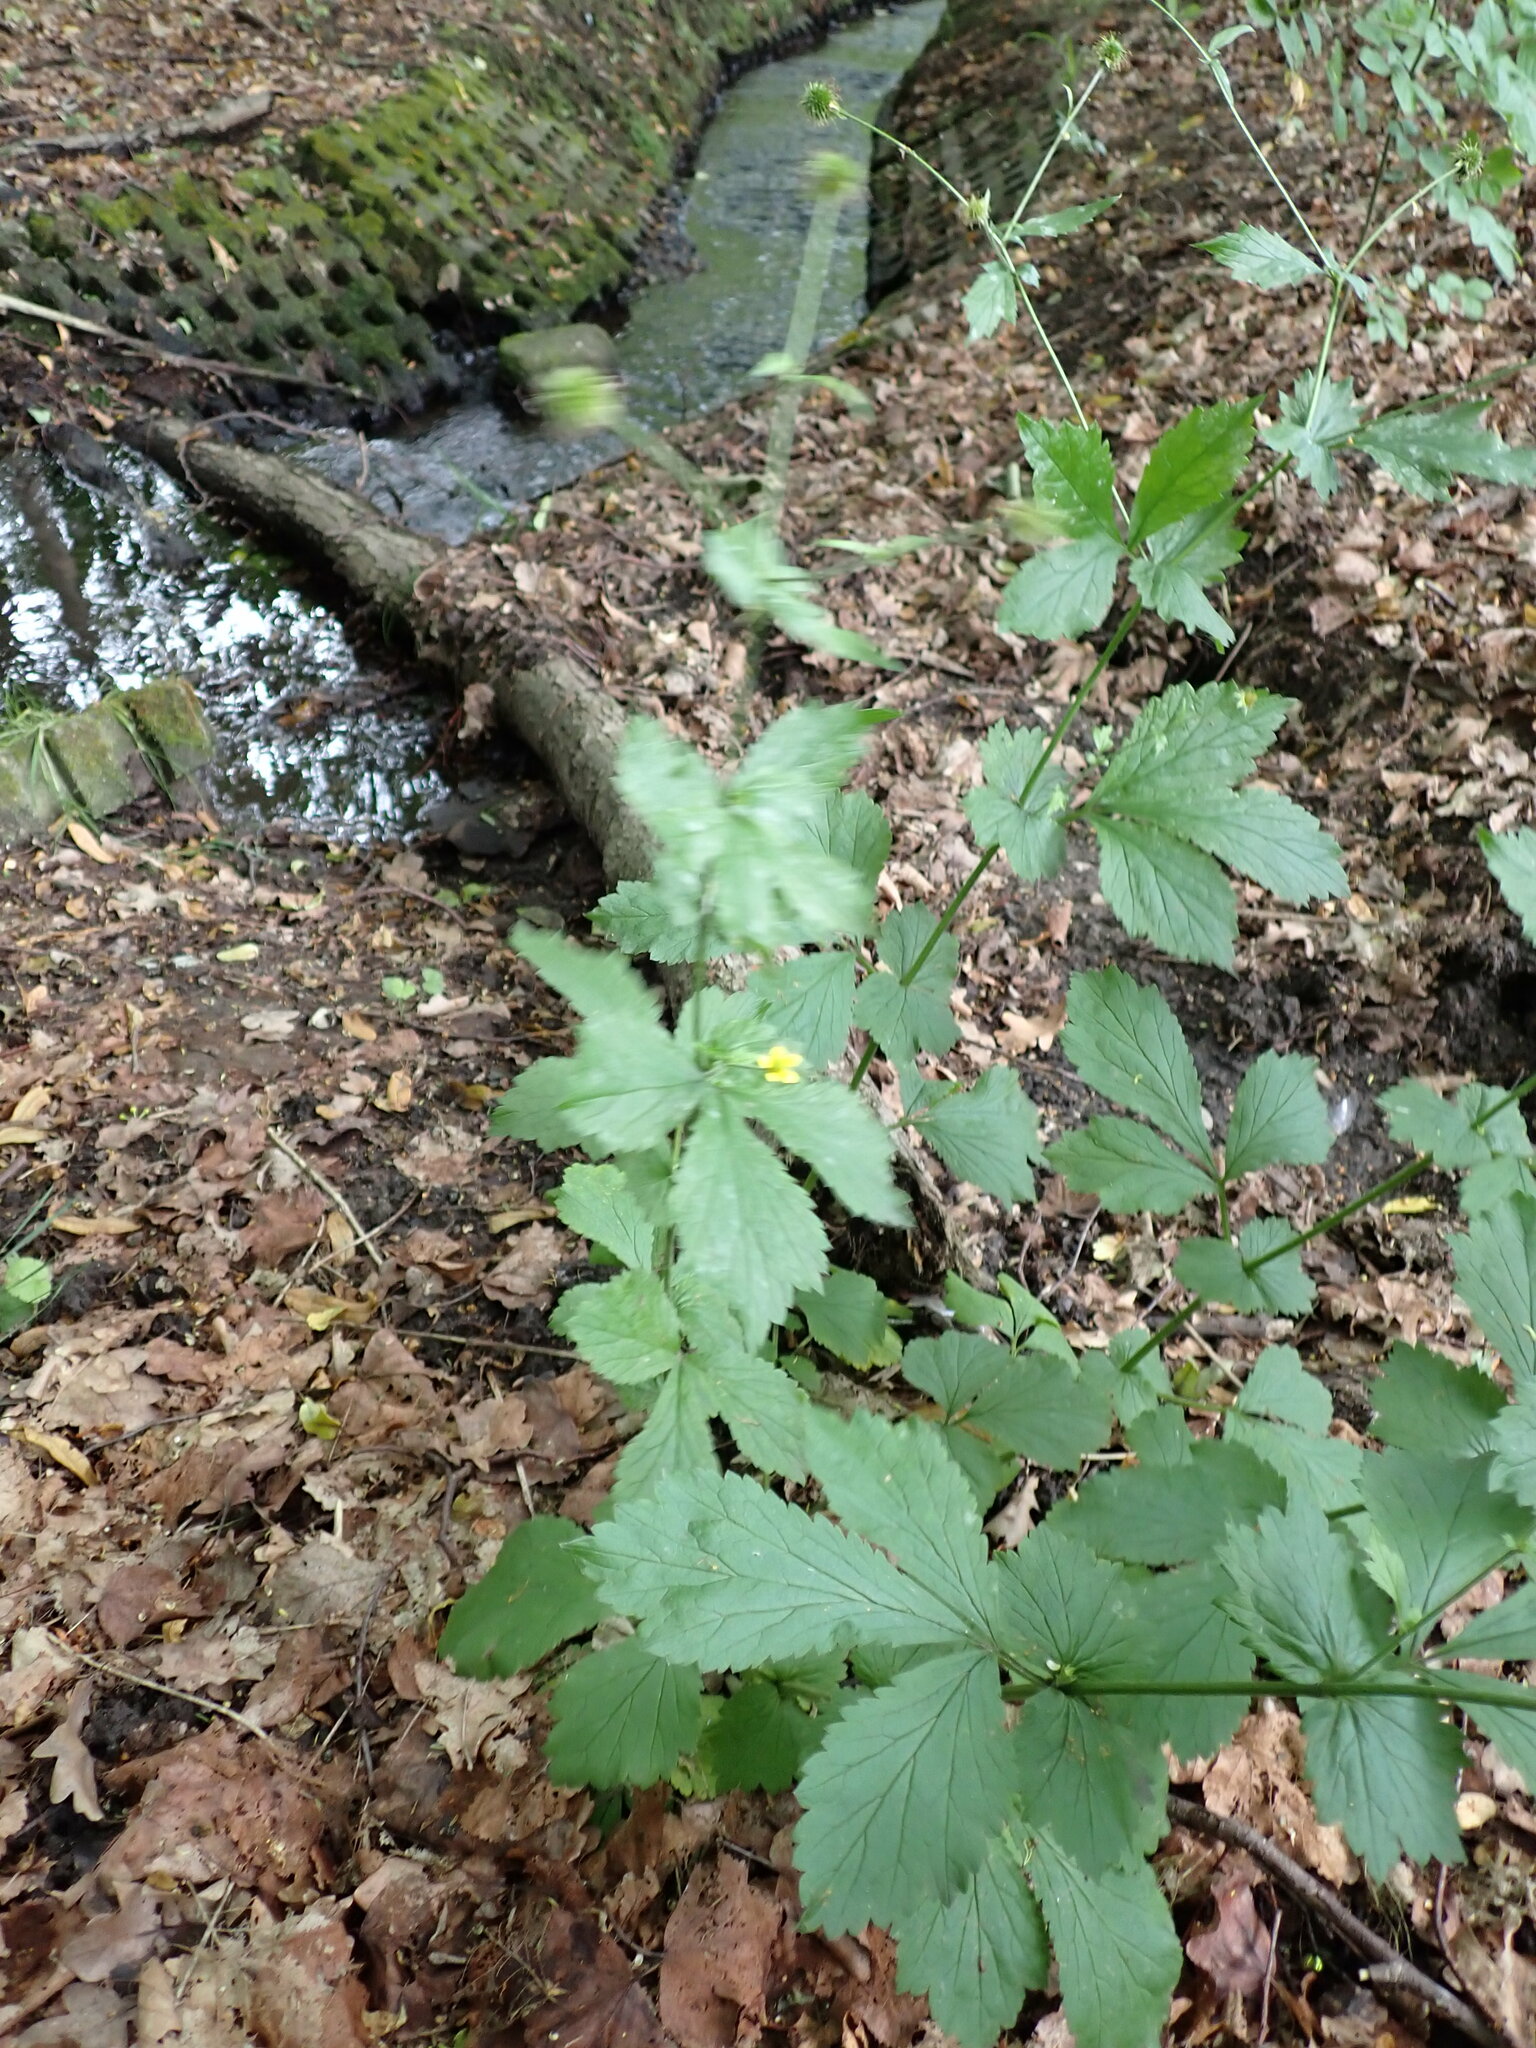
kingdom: Plantae
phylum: Tracheophyta
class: Magnoliopsida
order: Rosales
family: Rosaceae
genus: Geum
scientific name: Geum urbanum
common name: Wood avens
